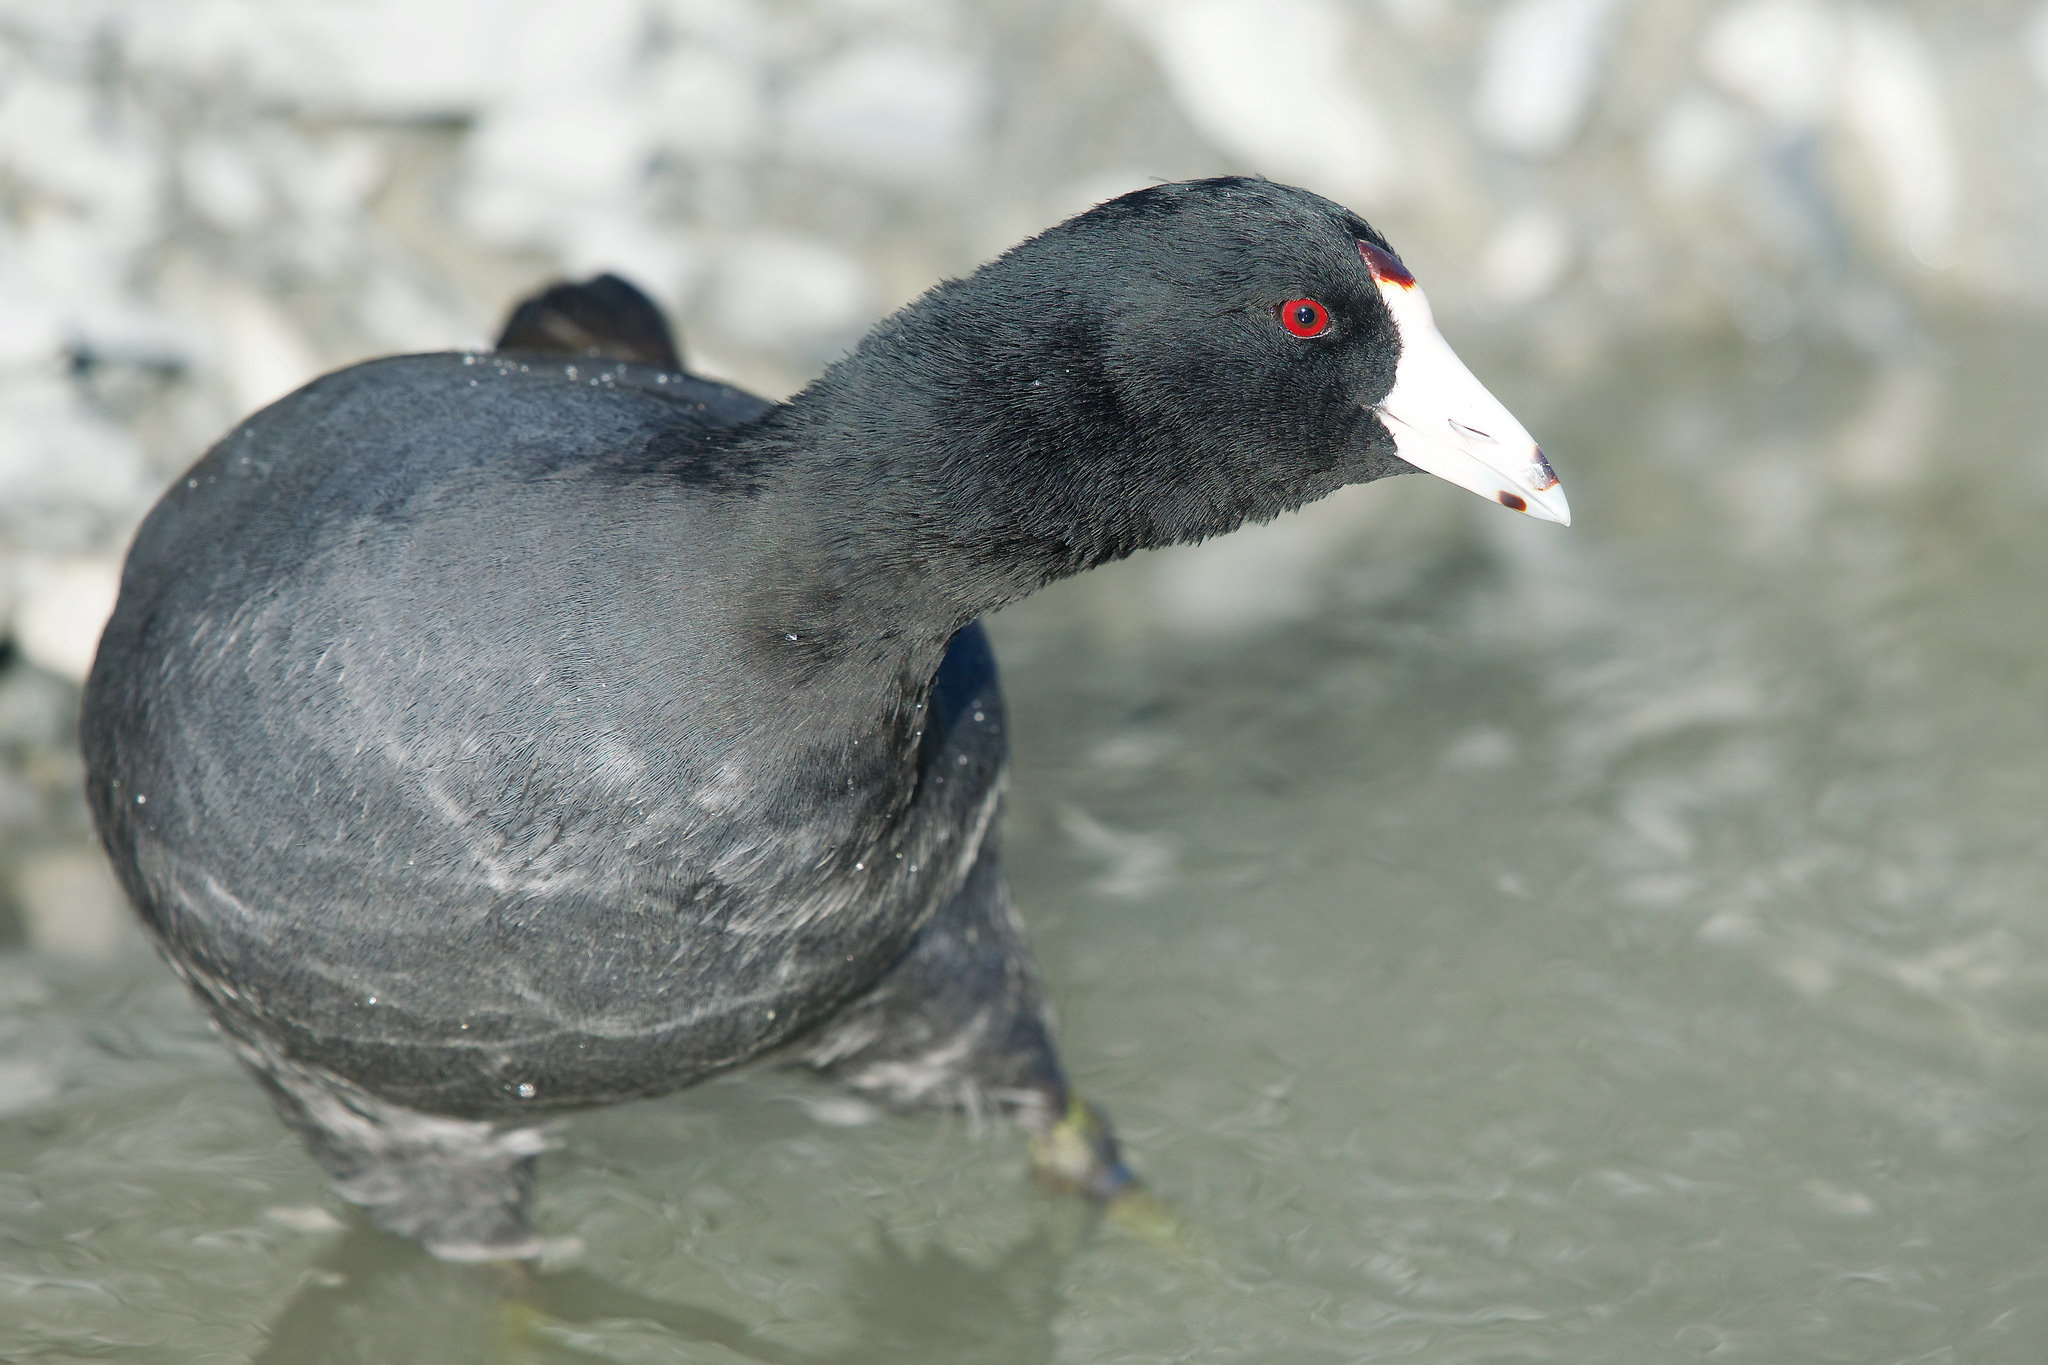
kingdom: Animalia
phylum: Chordata
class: Aves
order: Gruiformes
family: Rallidae
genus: Fulica
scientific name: Fulica americana
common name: American coot
